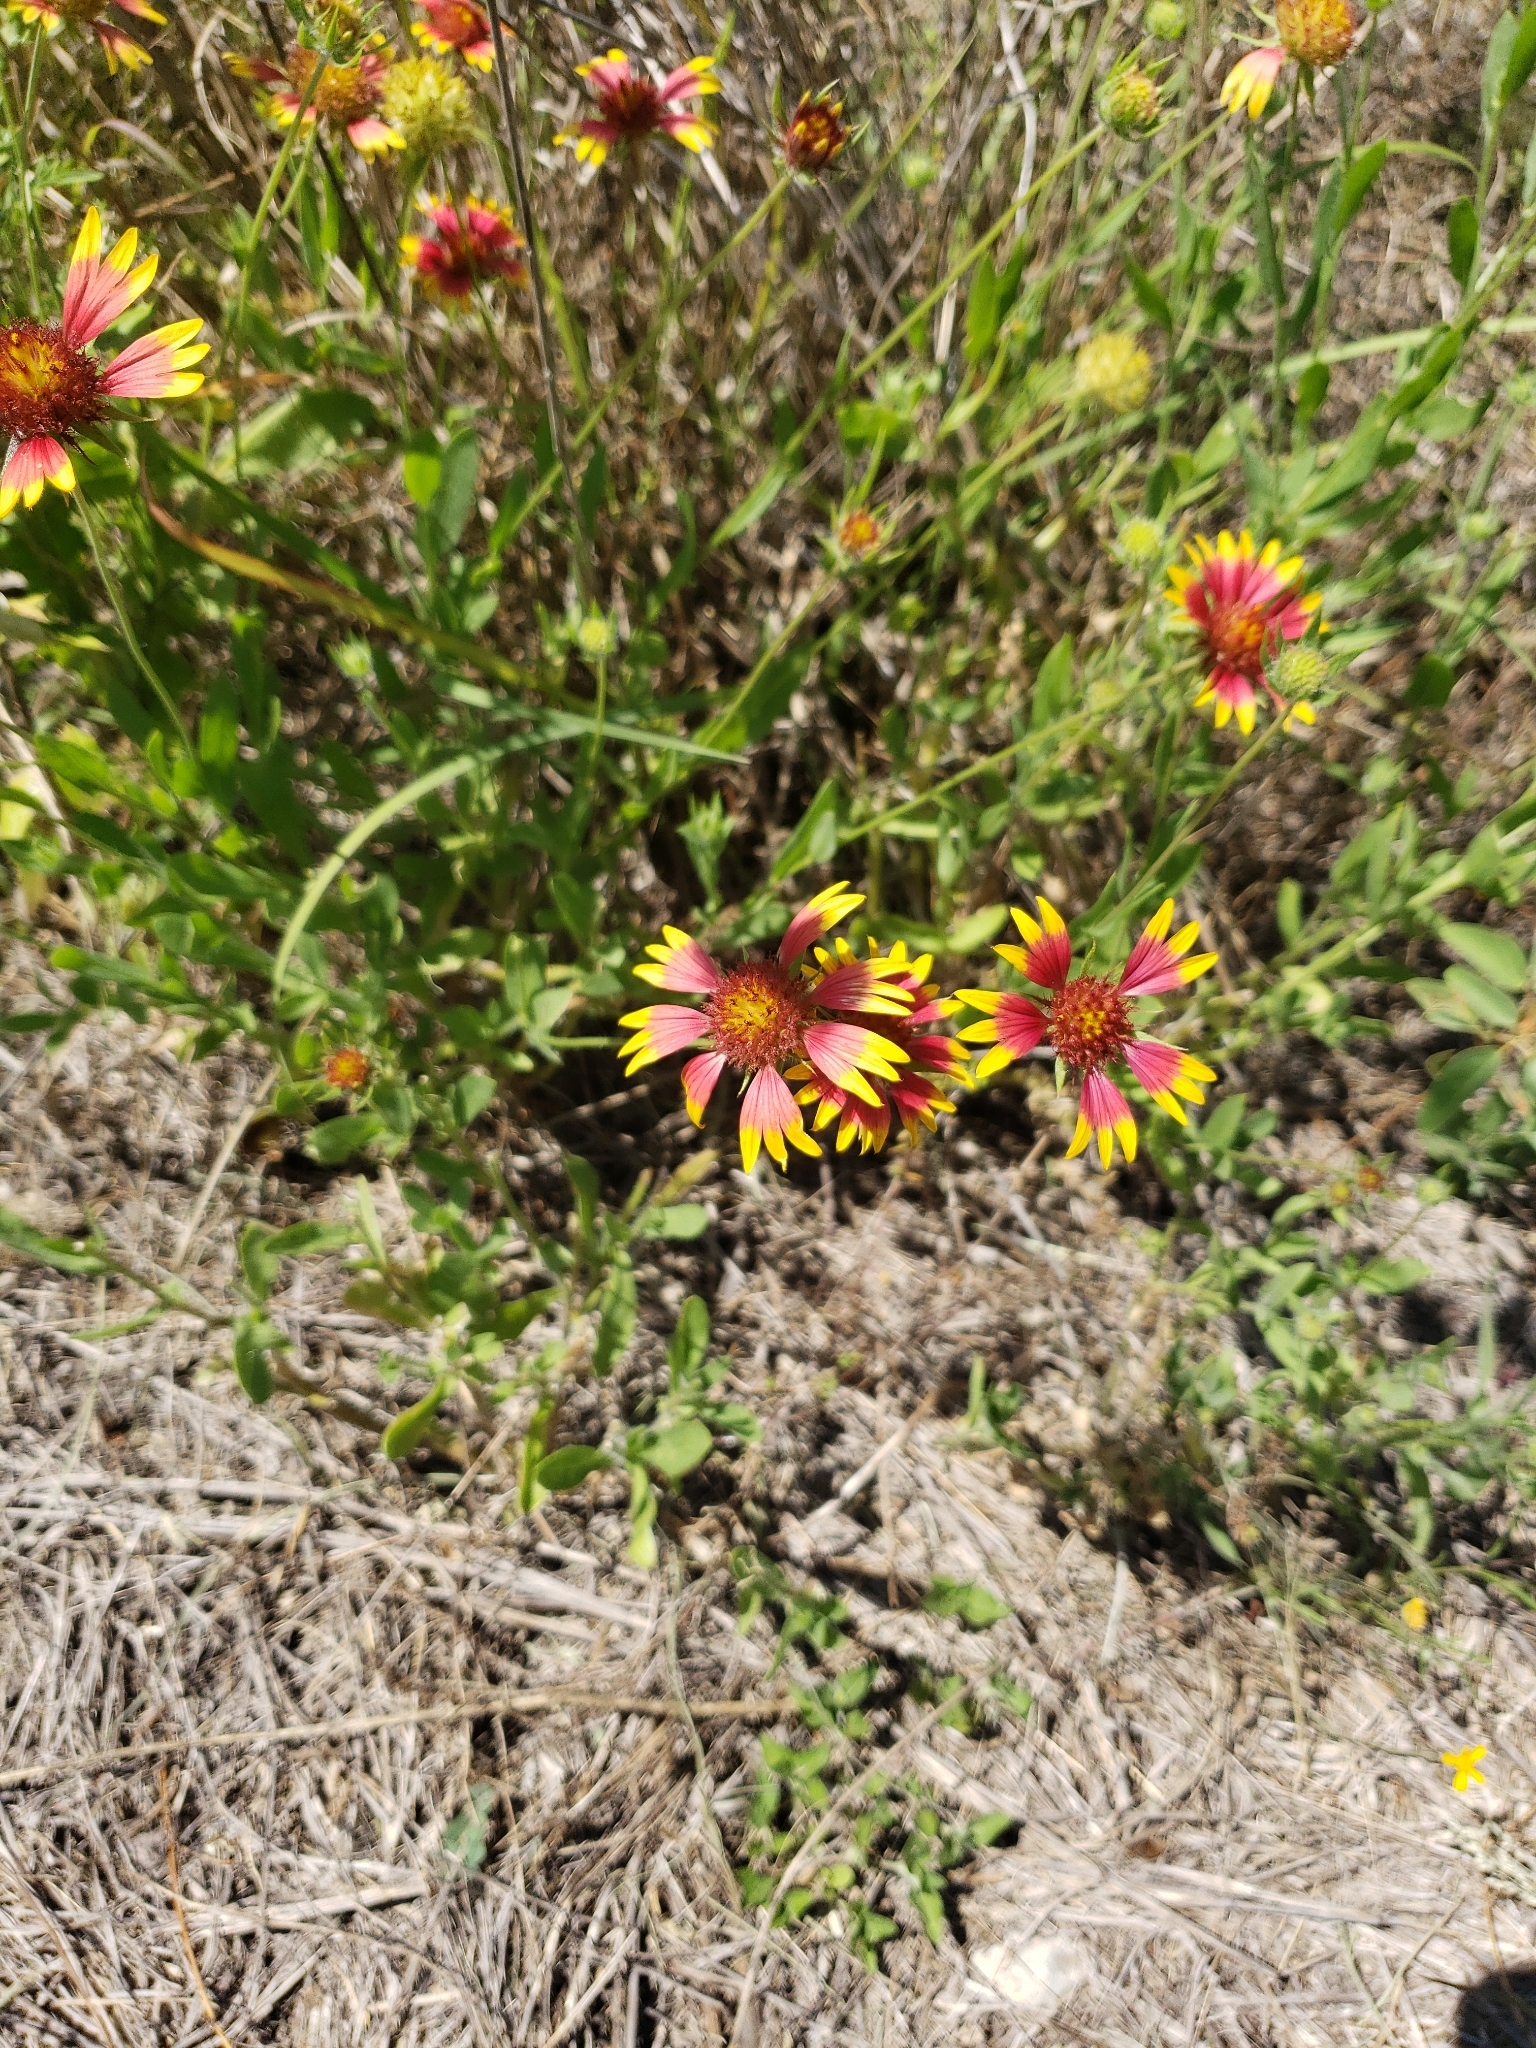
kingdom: Plantae
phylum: Tracheophyta
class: Magnoliopsida
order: Asterales
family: Asteraceae
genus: Gaillardia
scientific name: Gaillardia pulchella
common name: Firewheel
